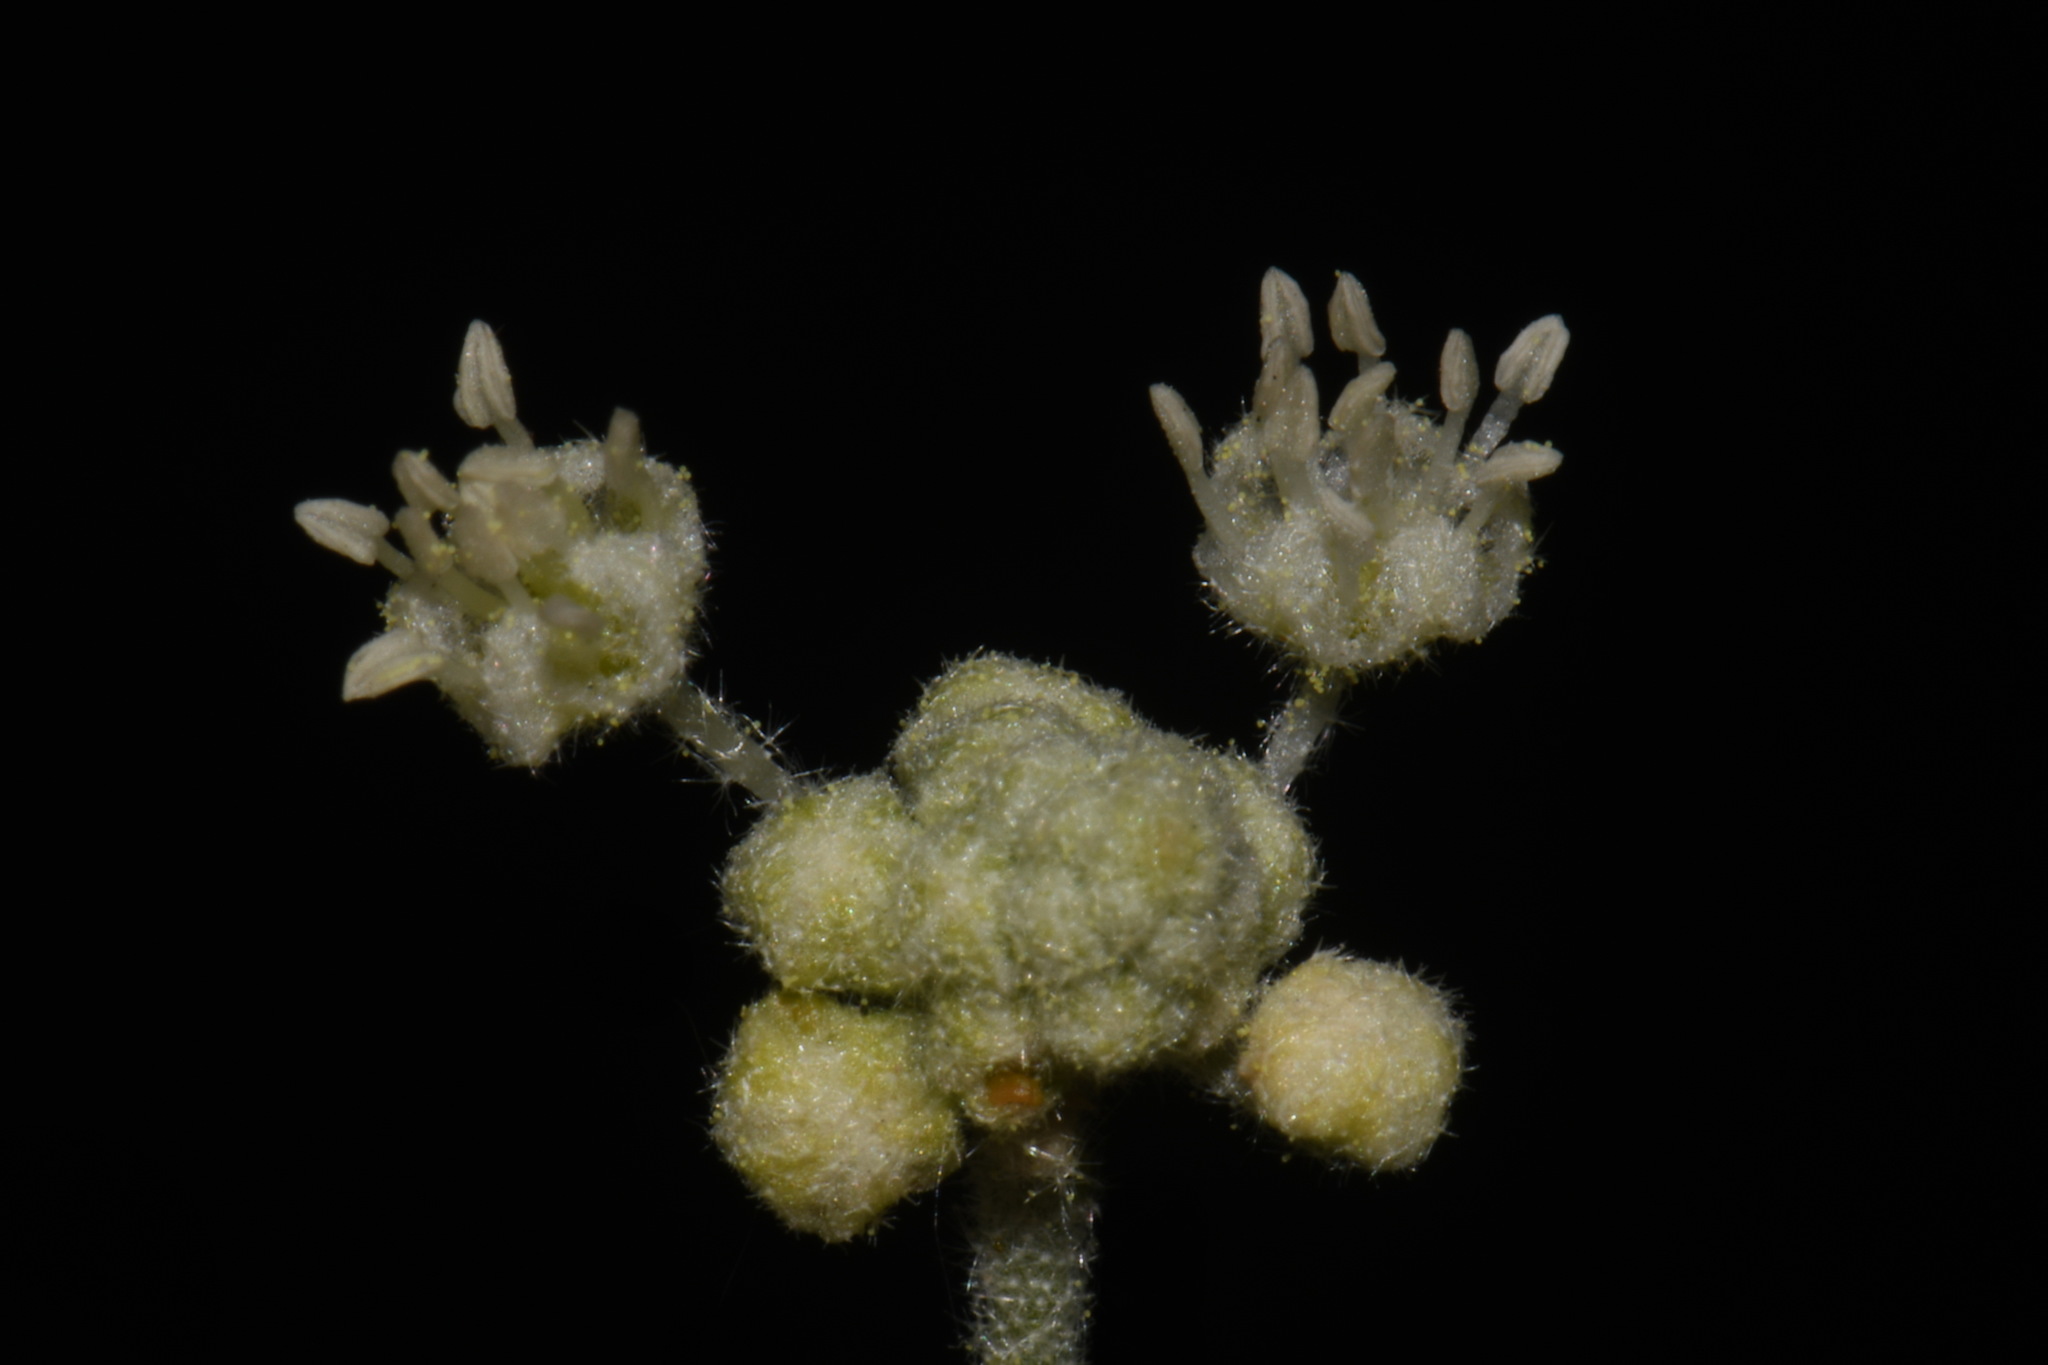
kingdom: Plantae
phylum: Tracheophyta
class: Magnoliopsida
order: Malpighiales
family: Euphorbiaceae
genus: Croton
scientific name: Croton texensis
